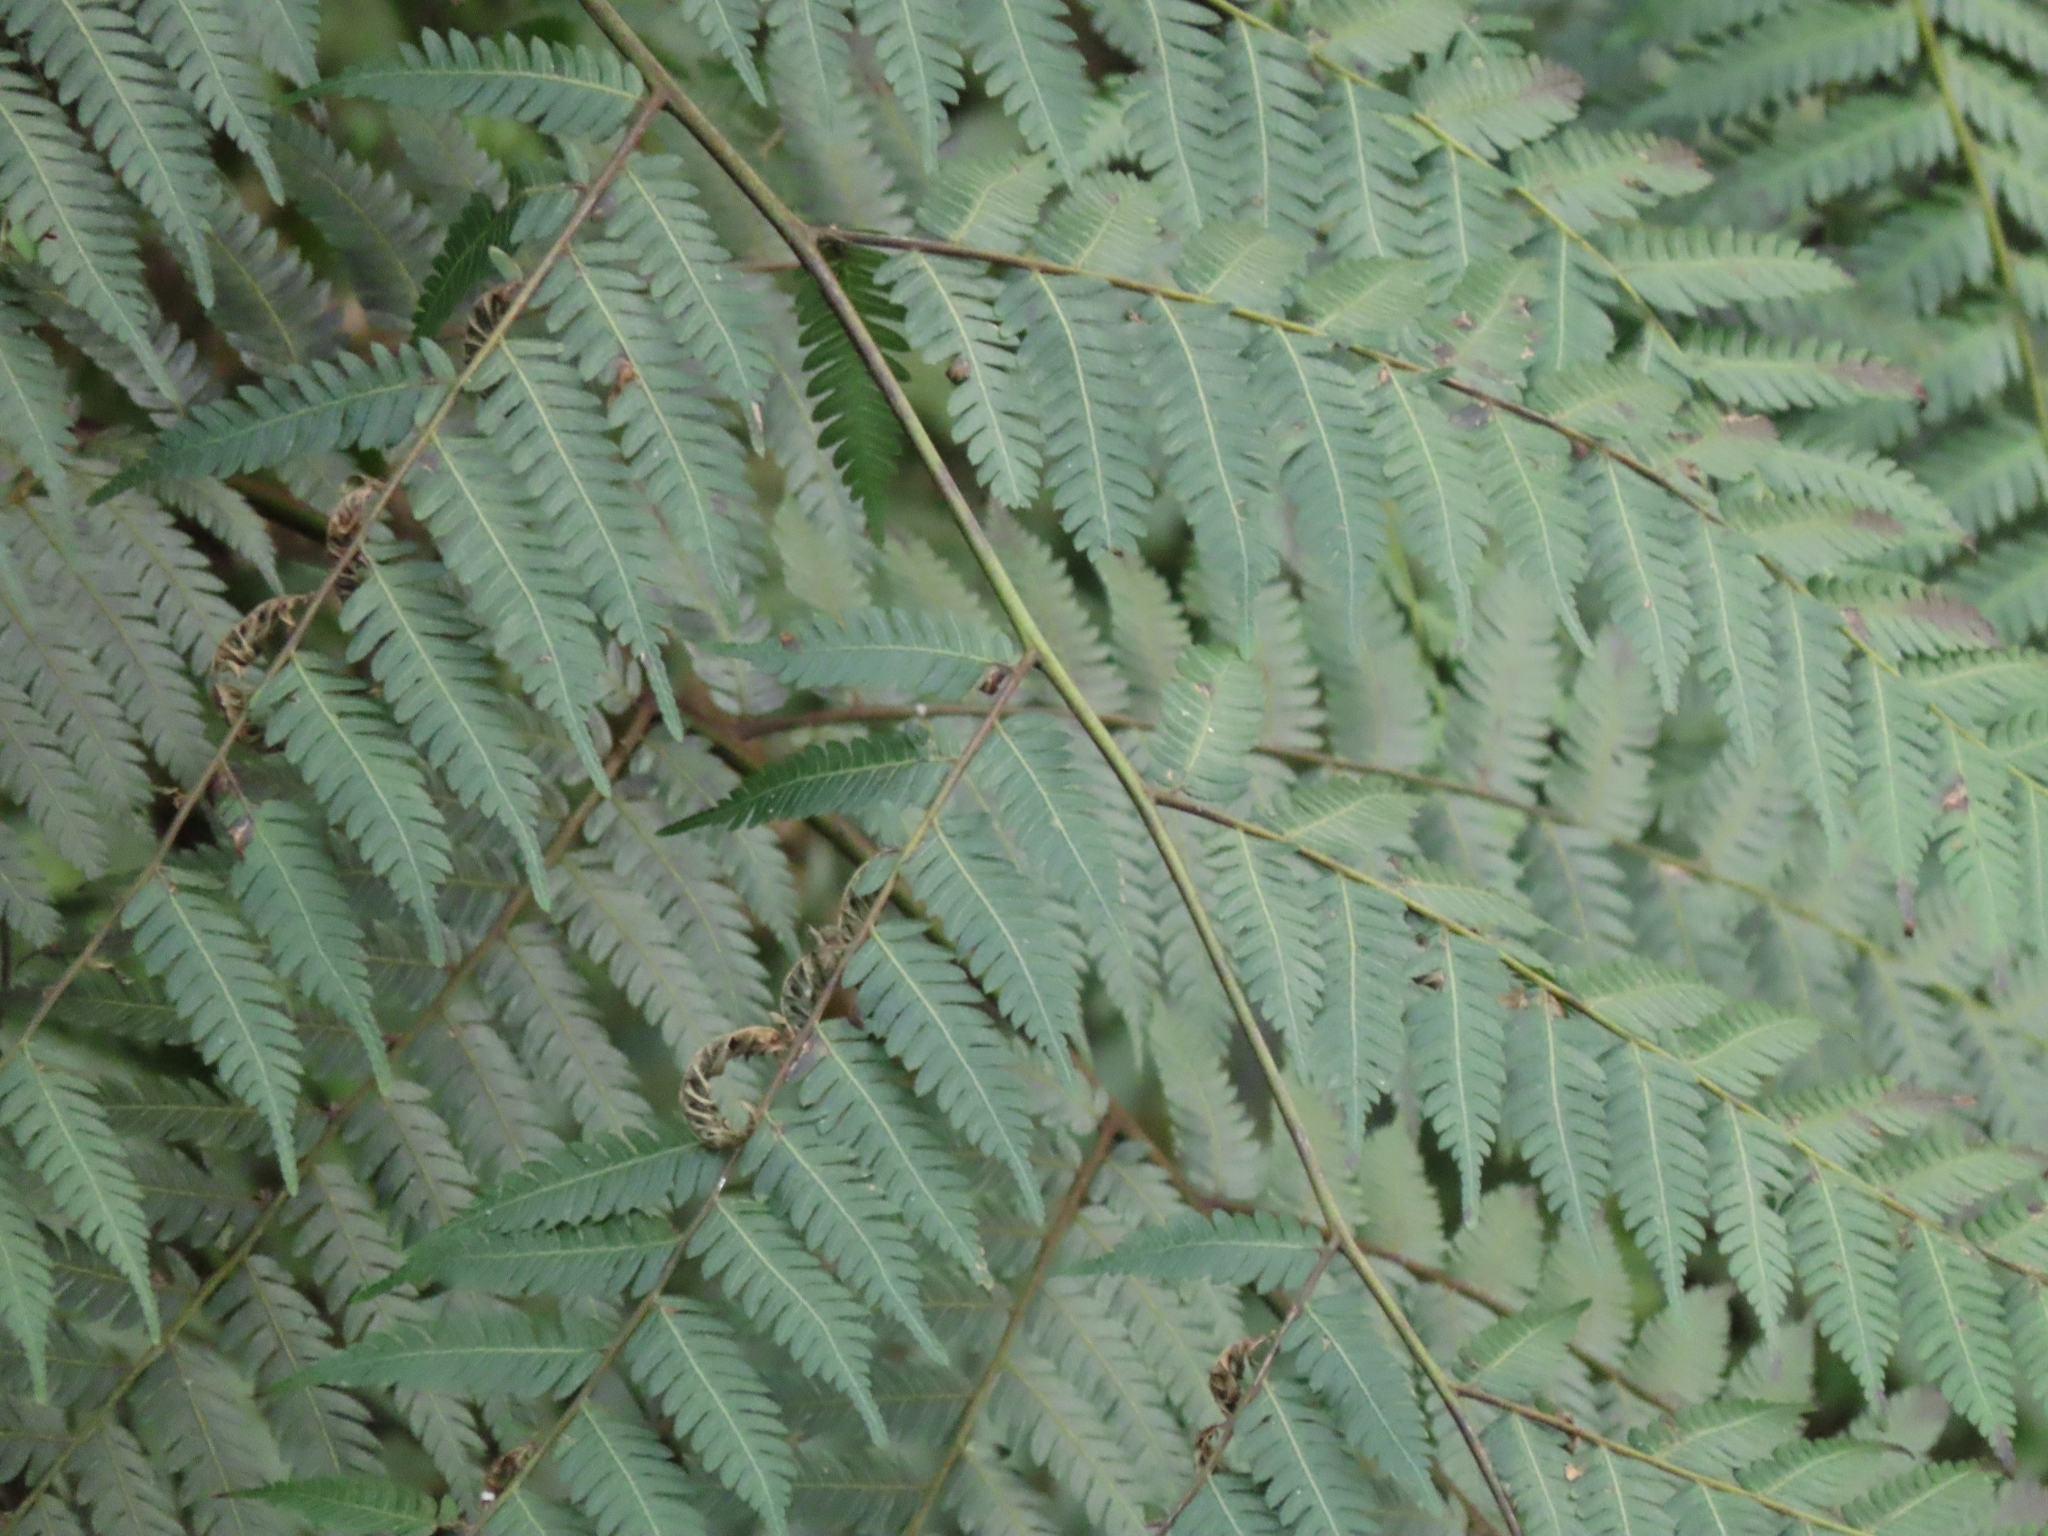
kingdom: Plantae
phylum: Tracheophyta
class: Polypodiopsida
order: Cyatheales
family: Cyatheaceae
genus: Alsophila
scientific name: Alsophila spinulosa
